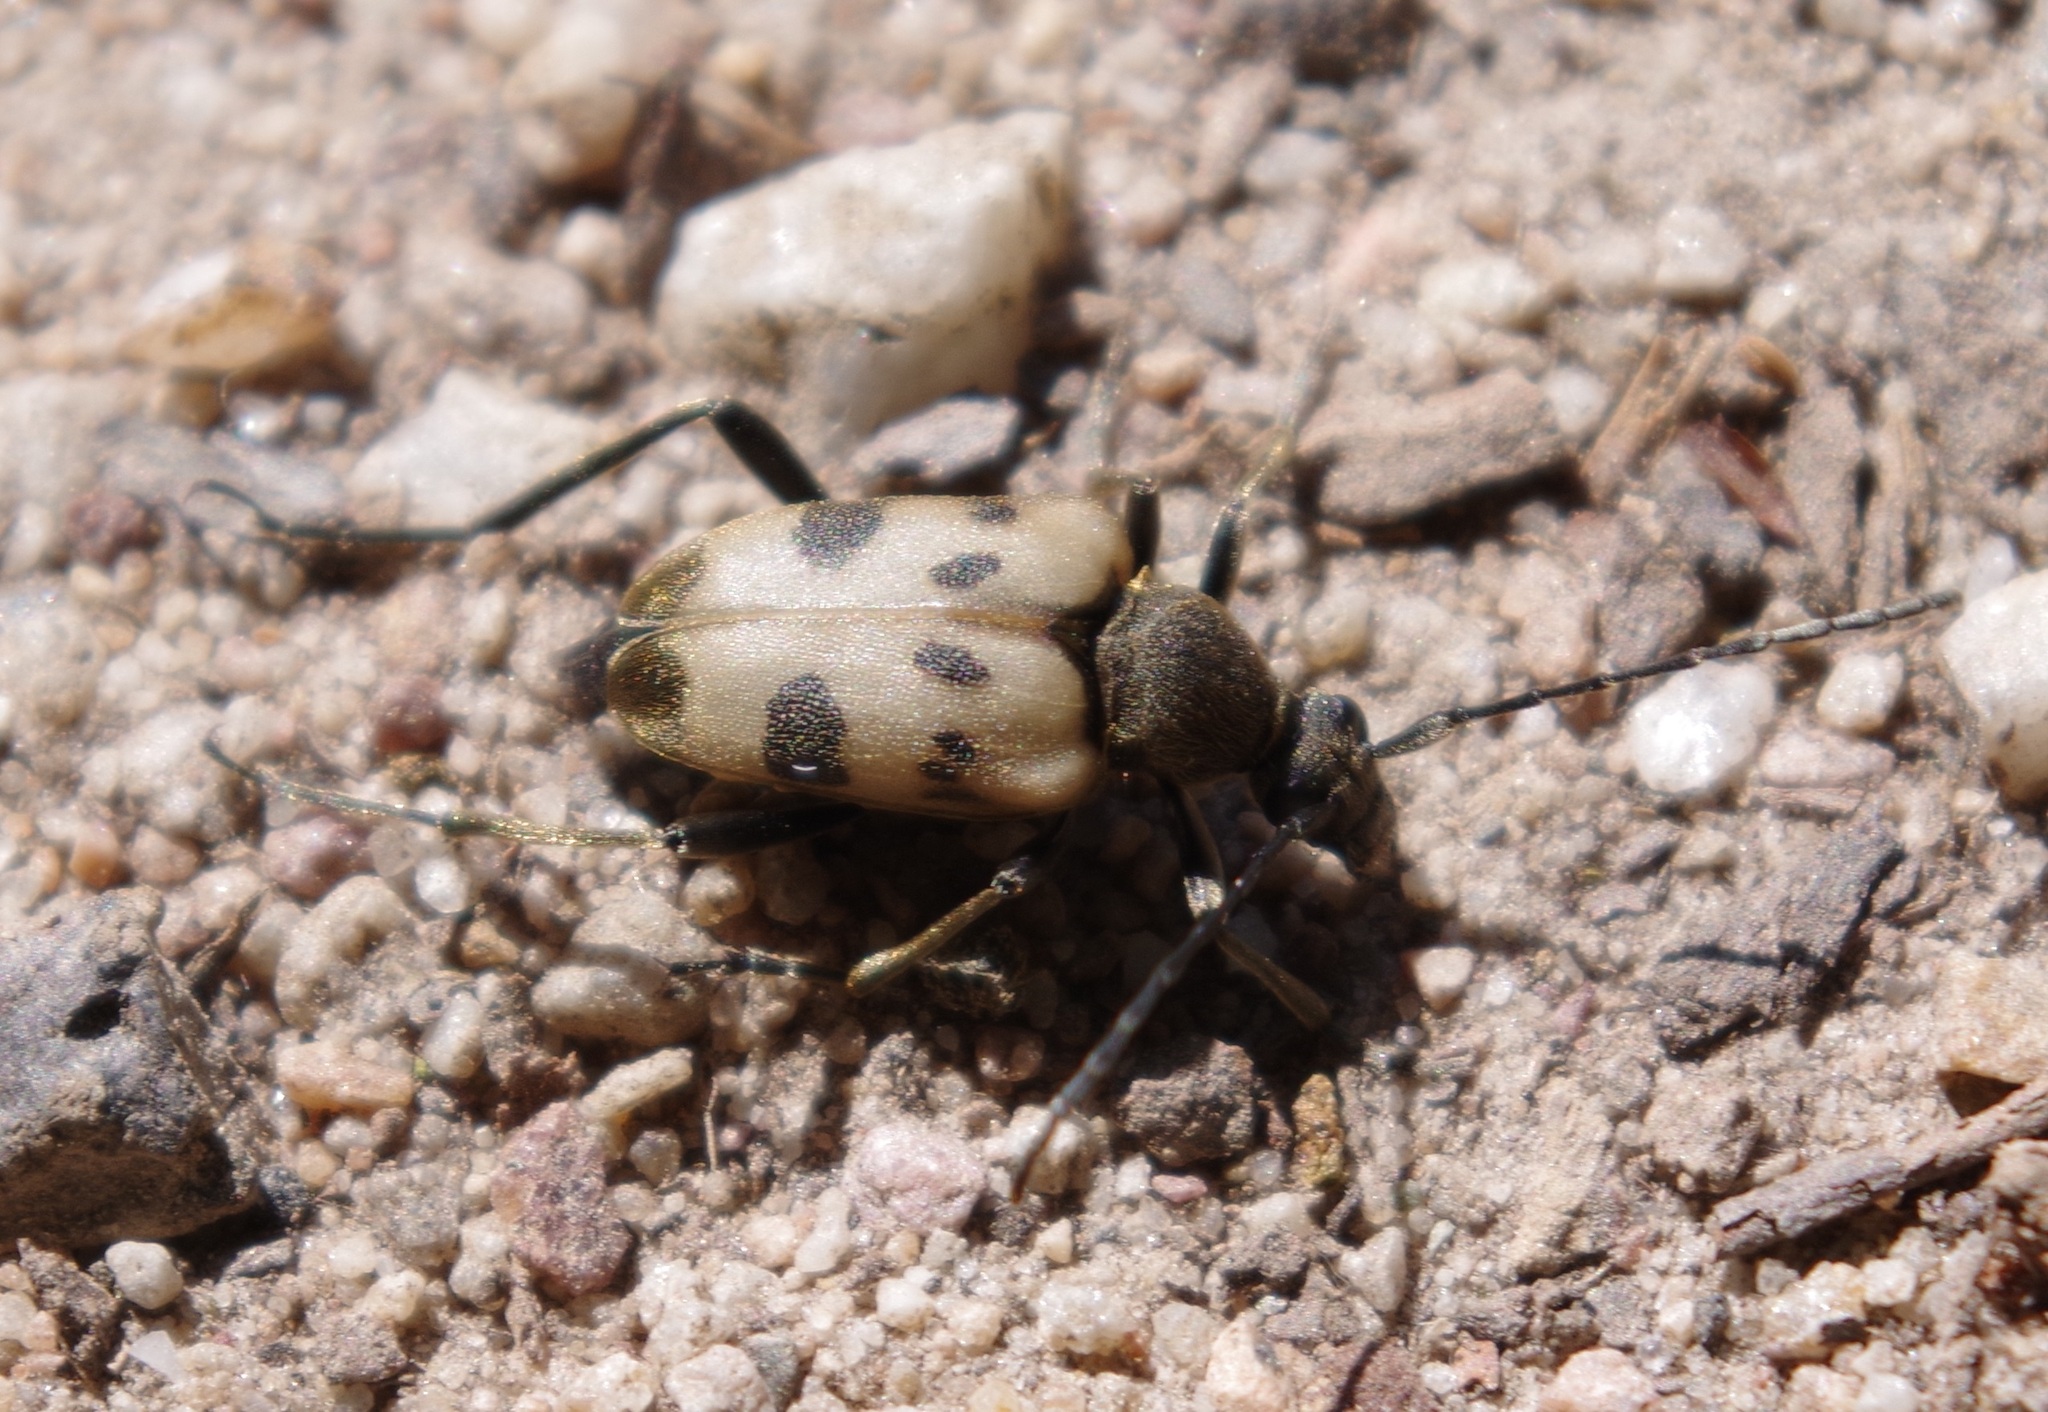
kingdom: Animalia
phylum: Arthropoda
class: Insecta
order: Coleoptera
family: Cerambycidae
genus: Pachytodes
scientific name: Pachytodes cerambyciformis
